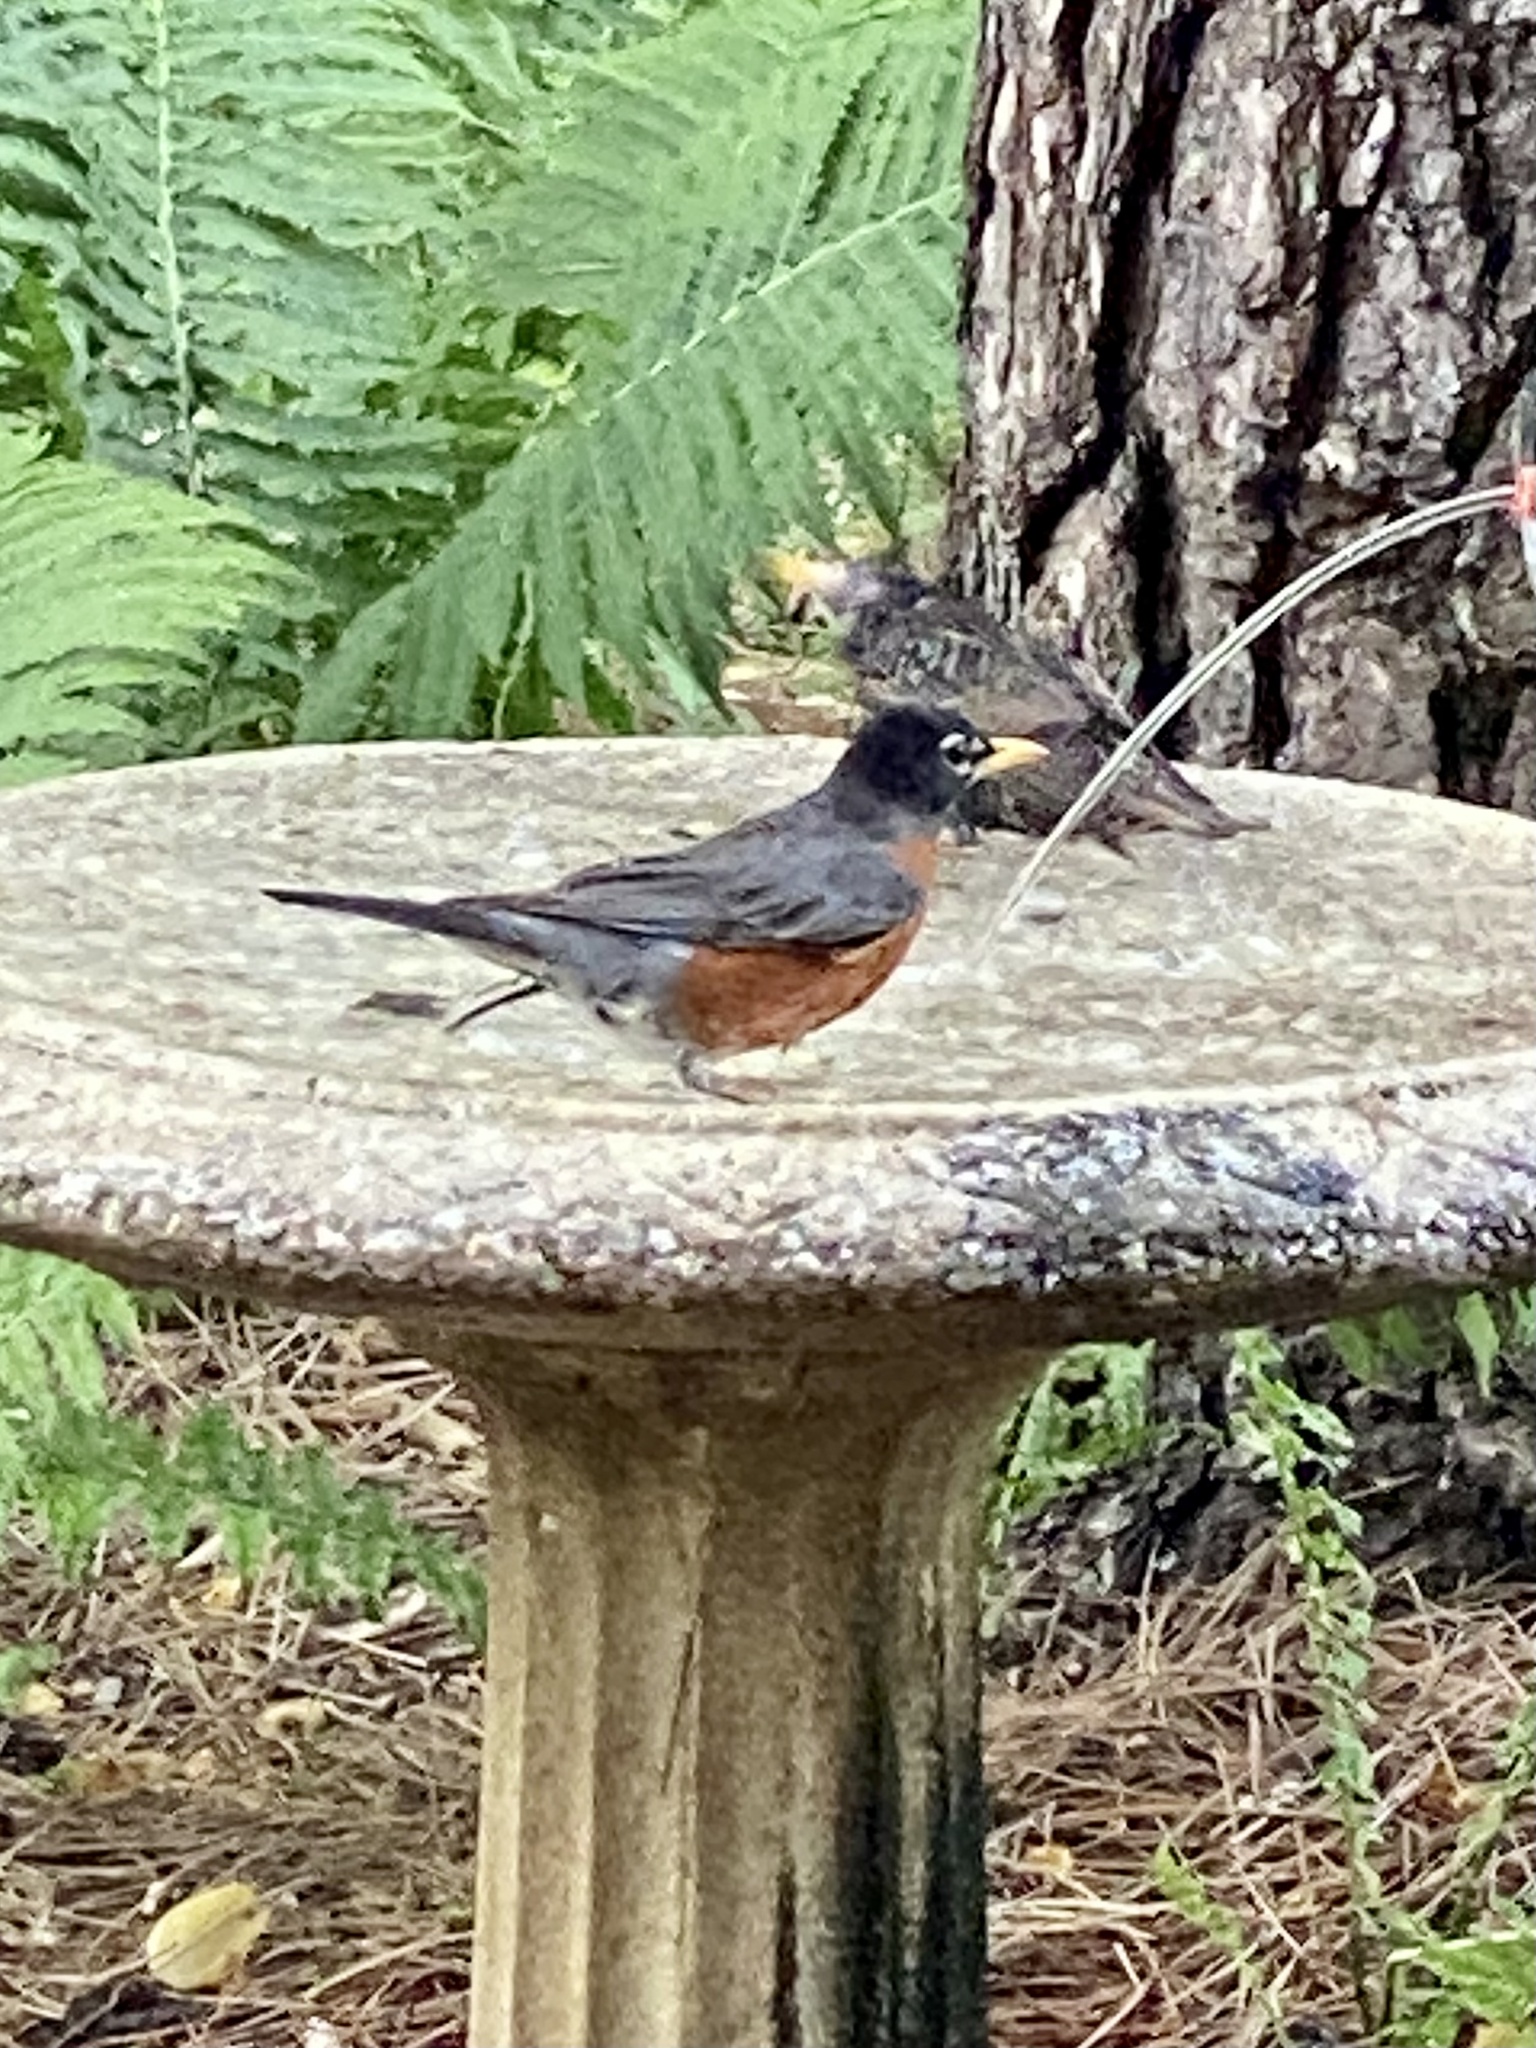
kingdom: Animalia
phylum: Chordata
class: Aves
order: Passeriformes
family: Turdidae
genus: Turdus
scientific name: Turdus migratorius
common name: American robin
